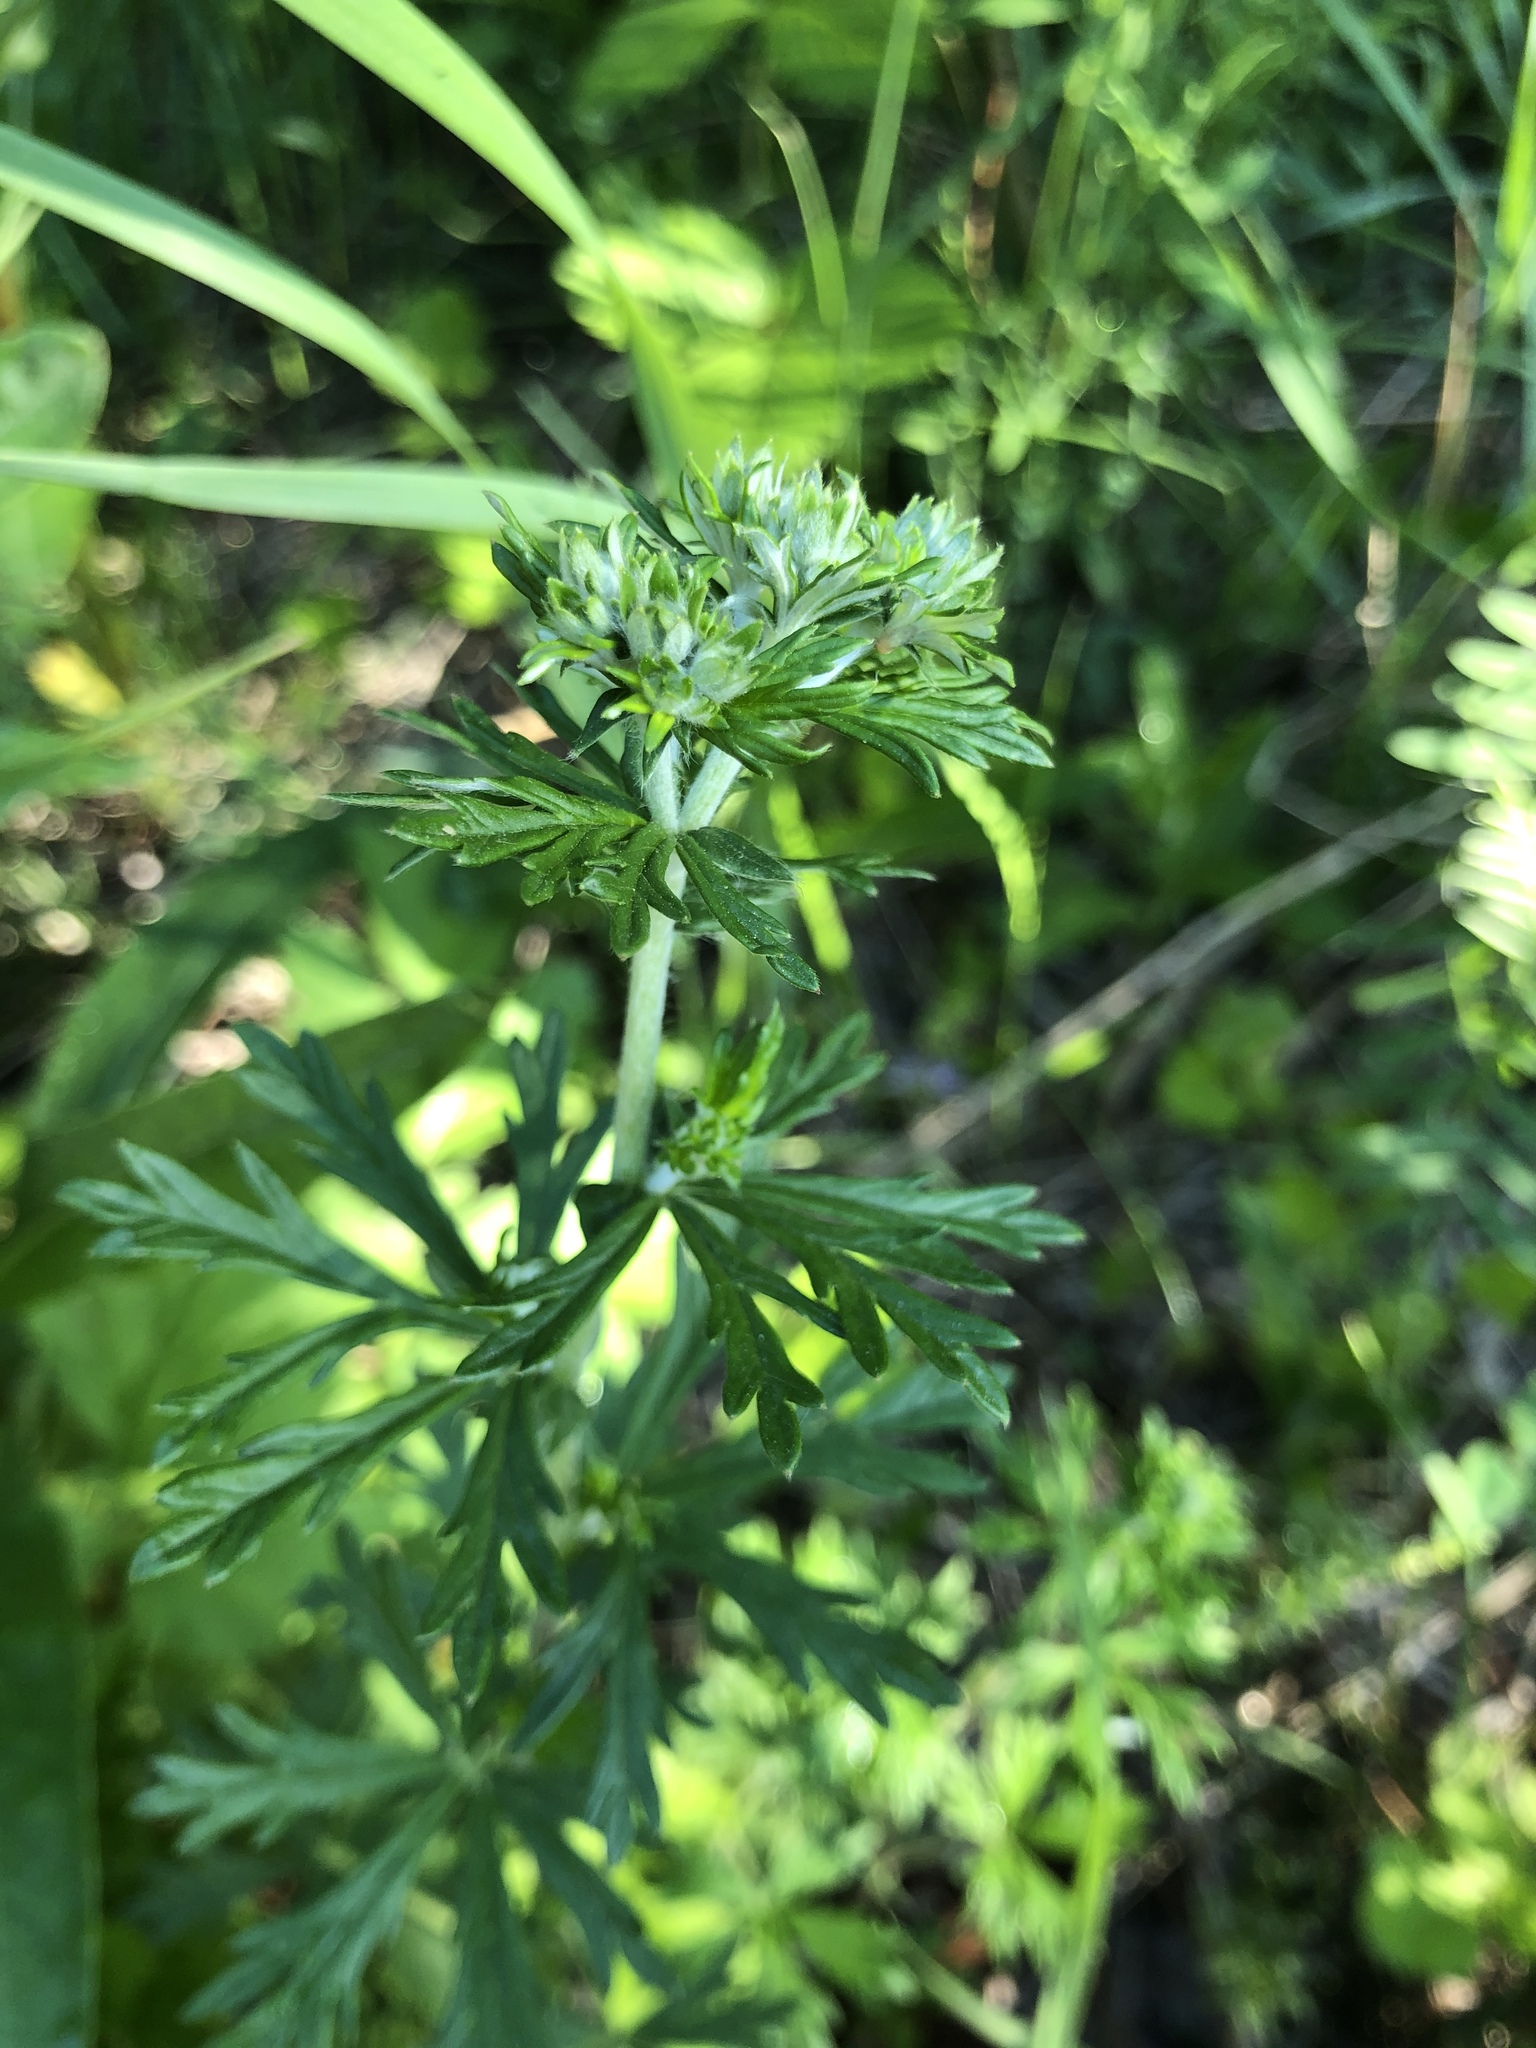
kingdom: Plantae
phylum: Tracheophyta
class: Magnoliopsida
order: Rosales
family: Rosaceae
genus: Potentilla
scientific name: Potentilla argentea
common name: Hoary cinquefoil
